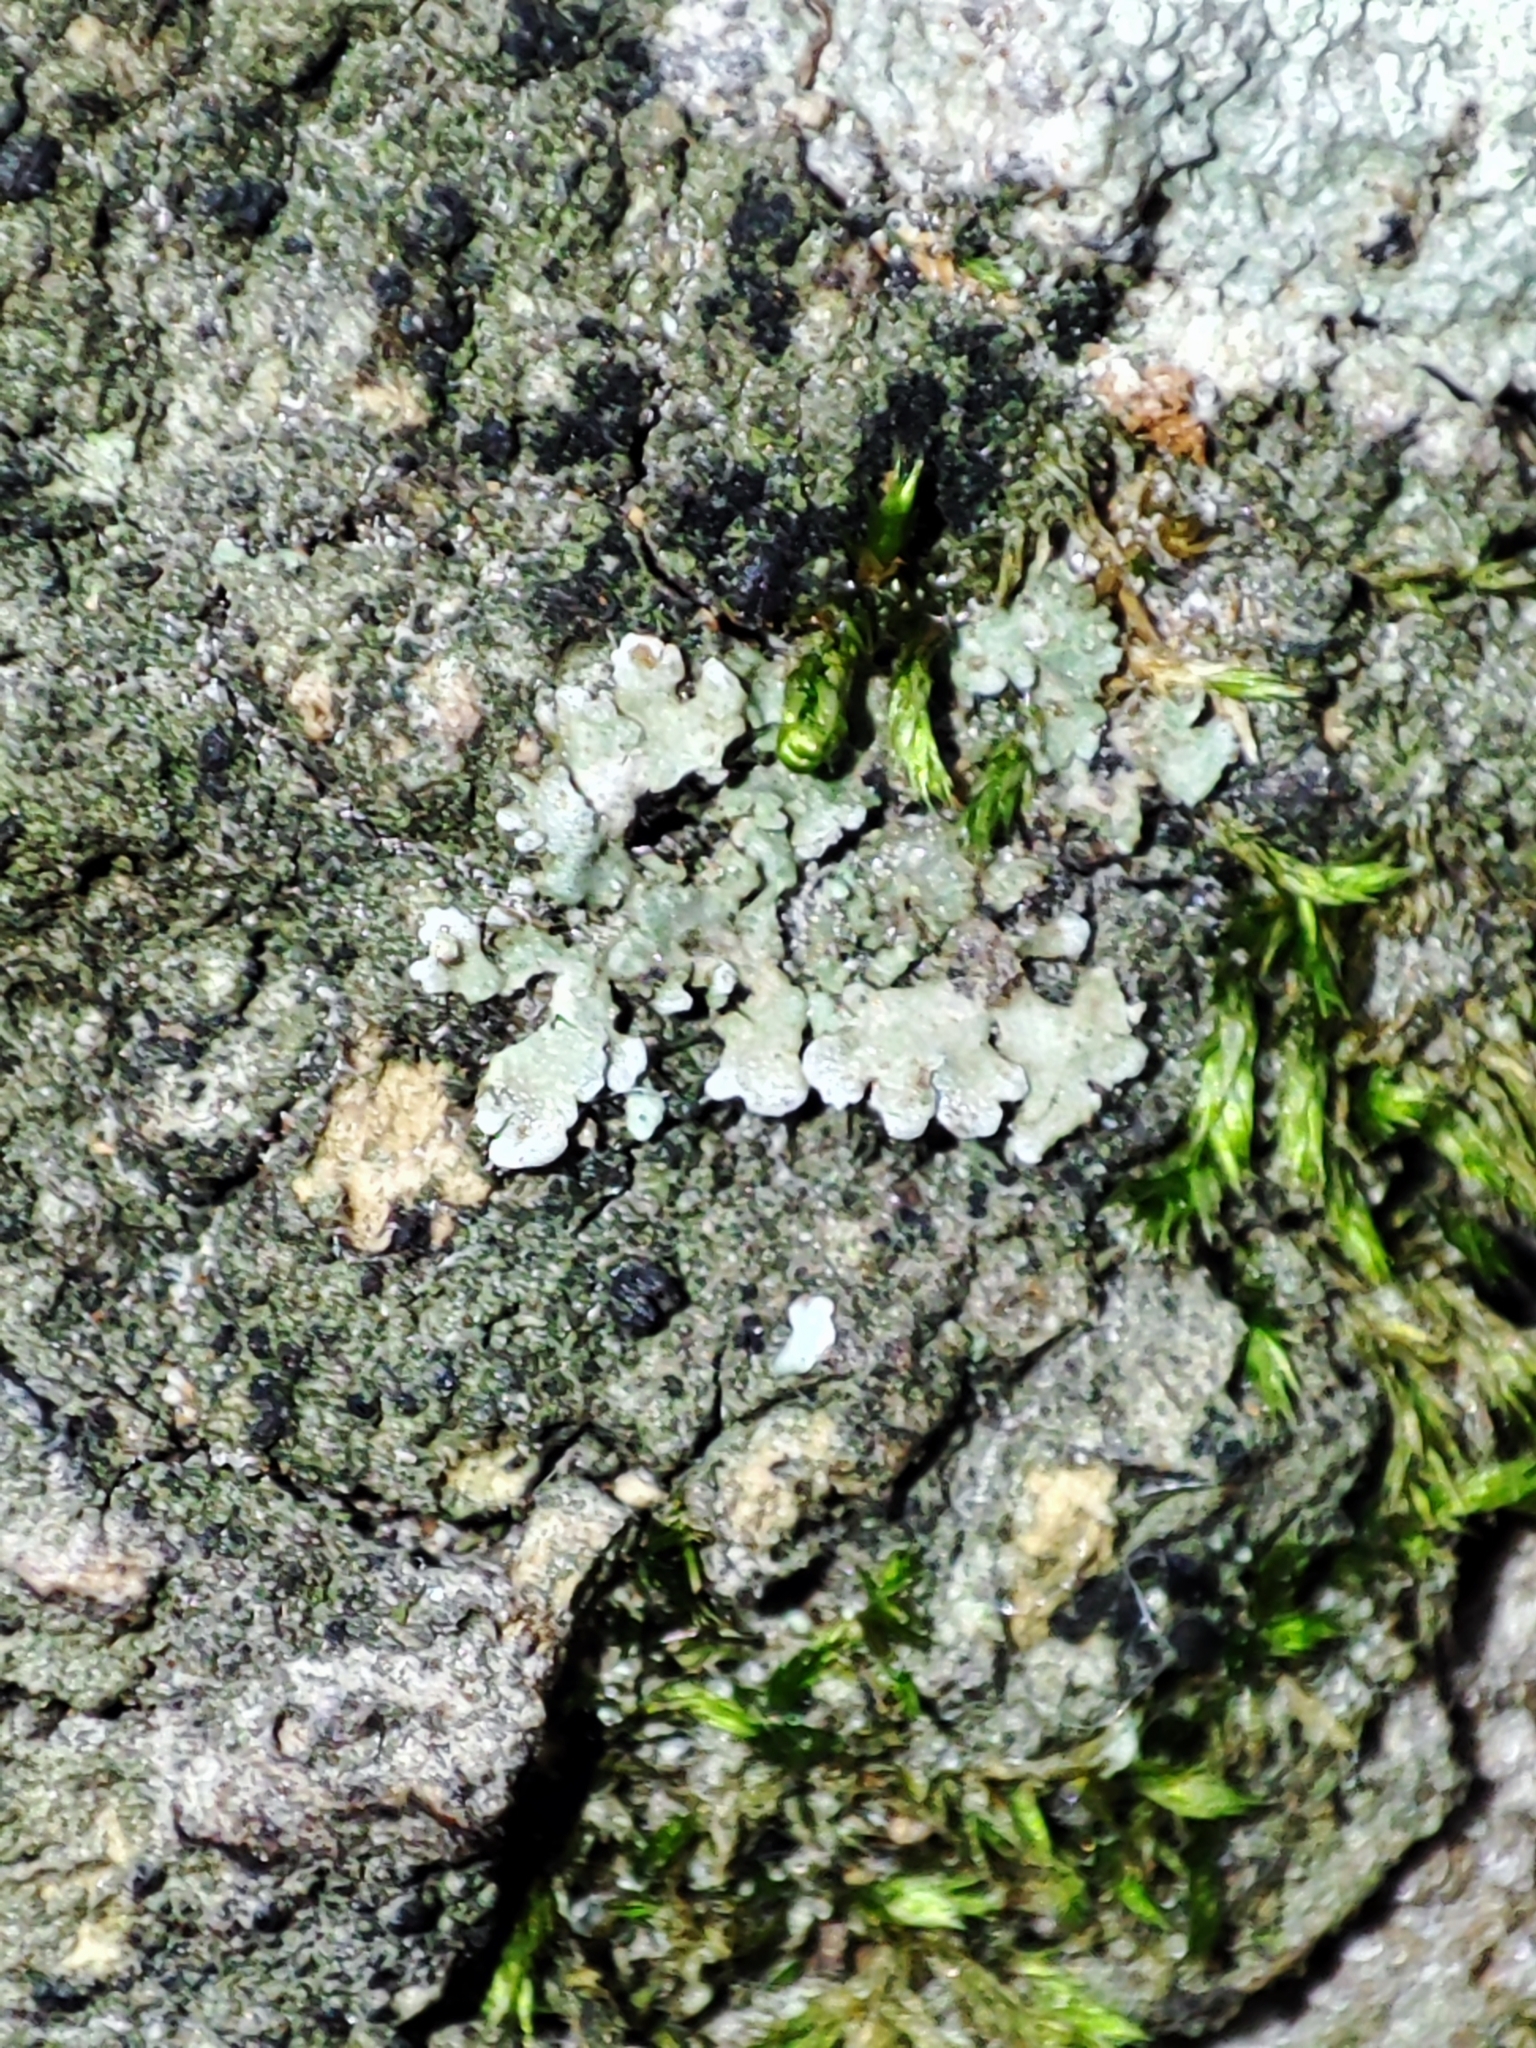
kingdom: Fungi
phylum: Ascomycota
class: Lecanoromycetes
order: Caliciales
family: Physciaceae
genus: Physconia
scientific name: Physconia enteroxantha
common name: Yellow-edged frost lichen
